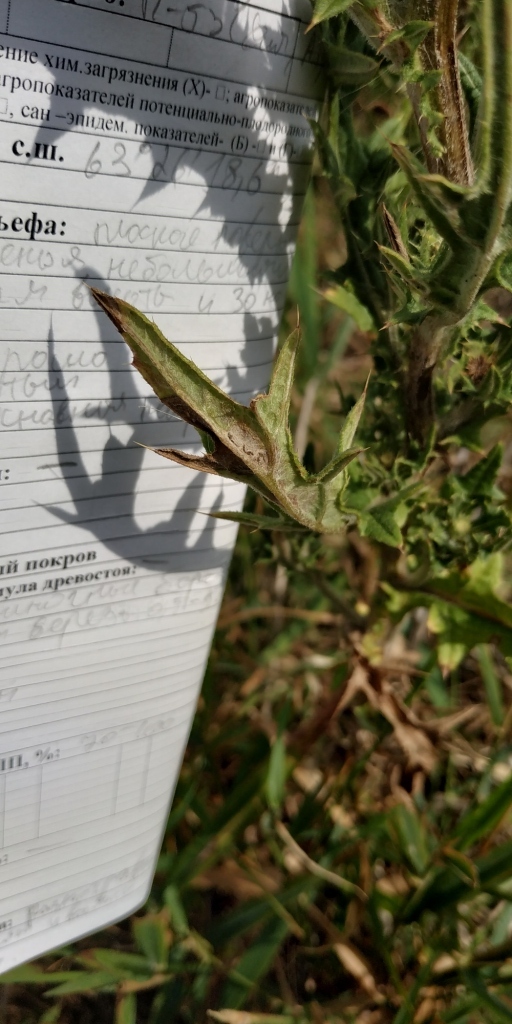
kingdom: Plantae
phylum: Tracheophyta
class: Magnoliopsida
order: Asterales
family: Asteraceae
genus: Cirsium
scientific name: Cirsium vulgare
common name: Bull thistle
